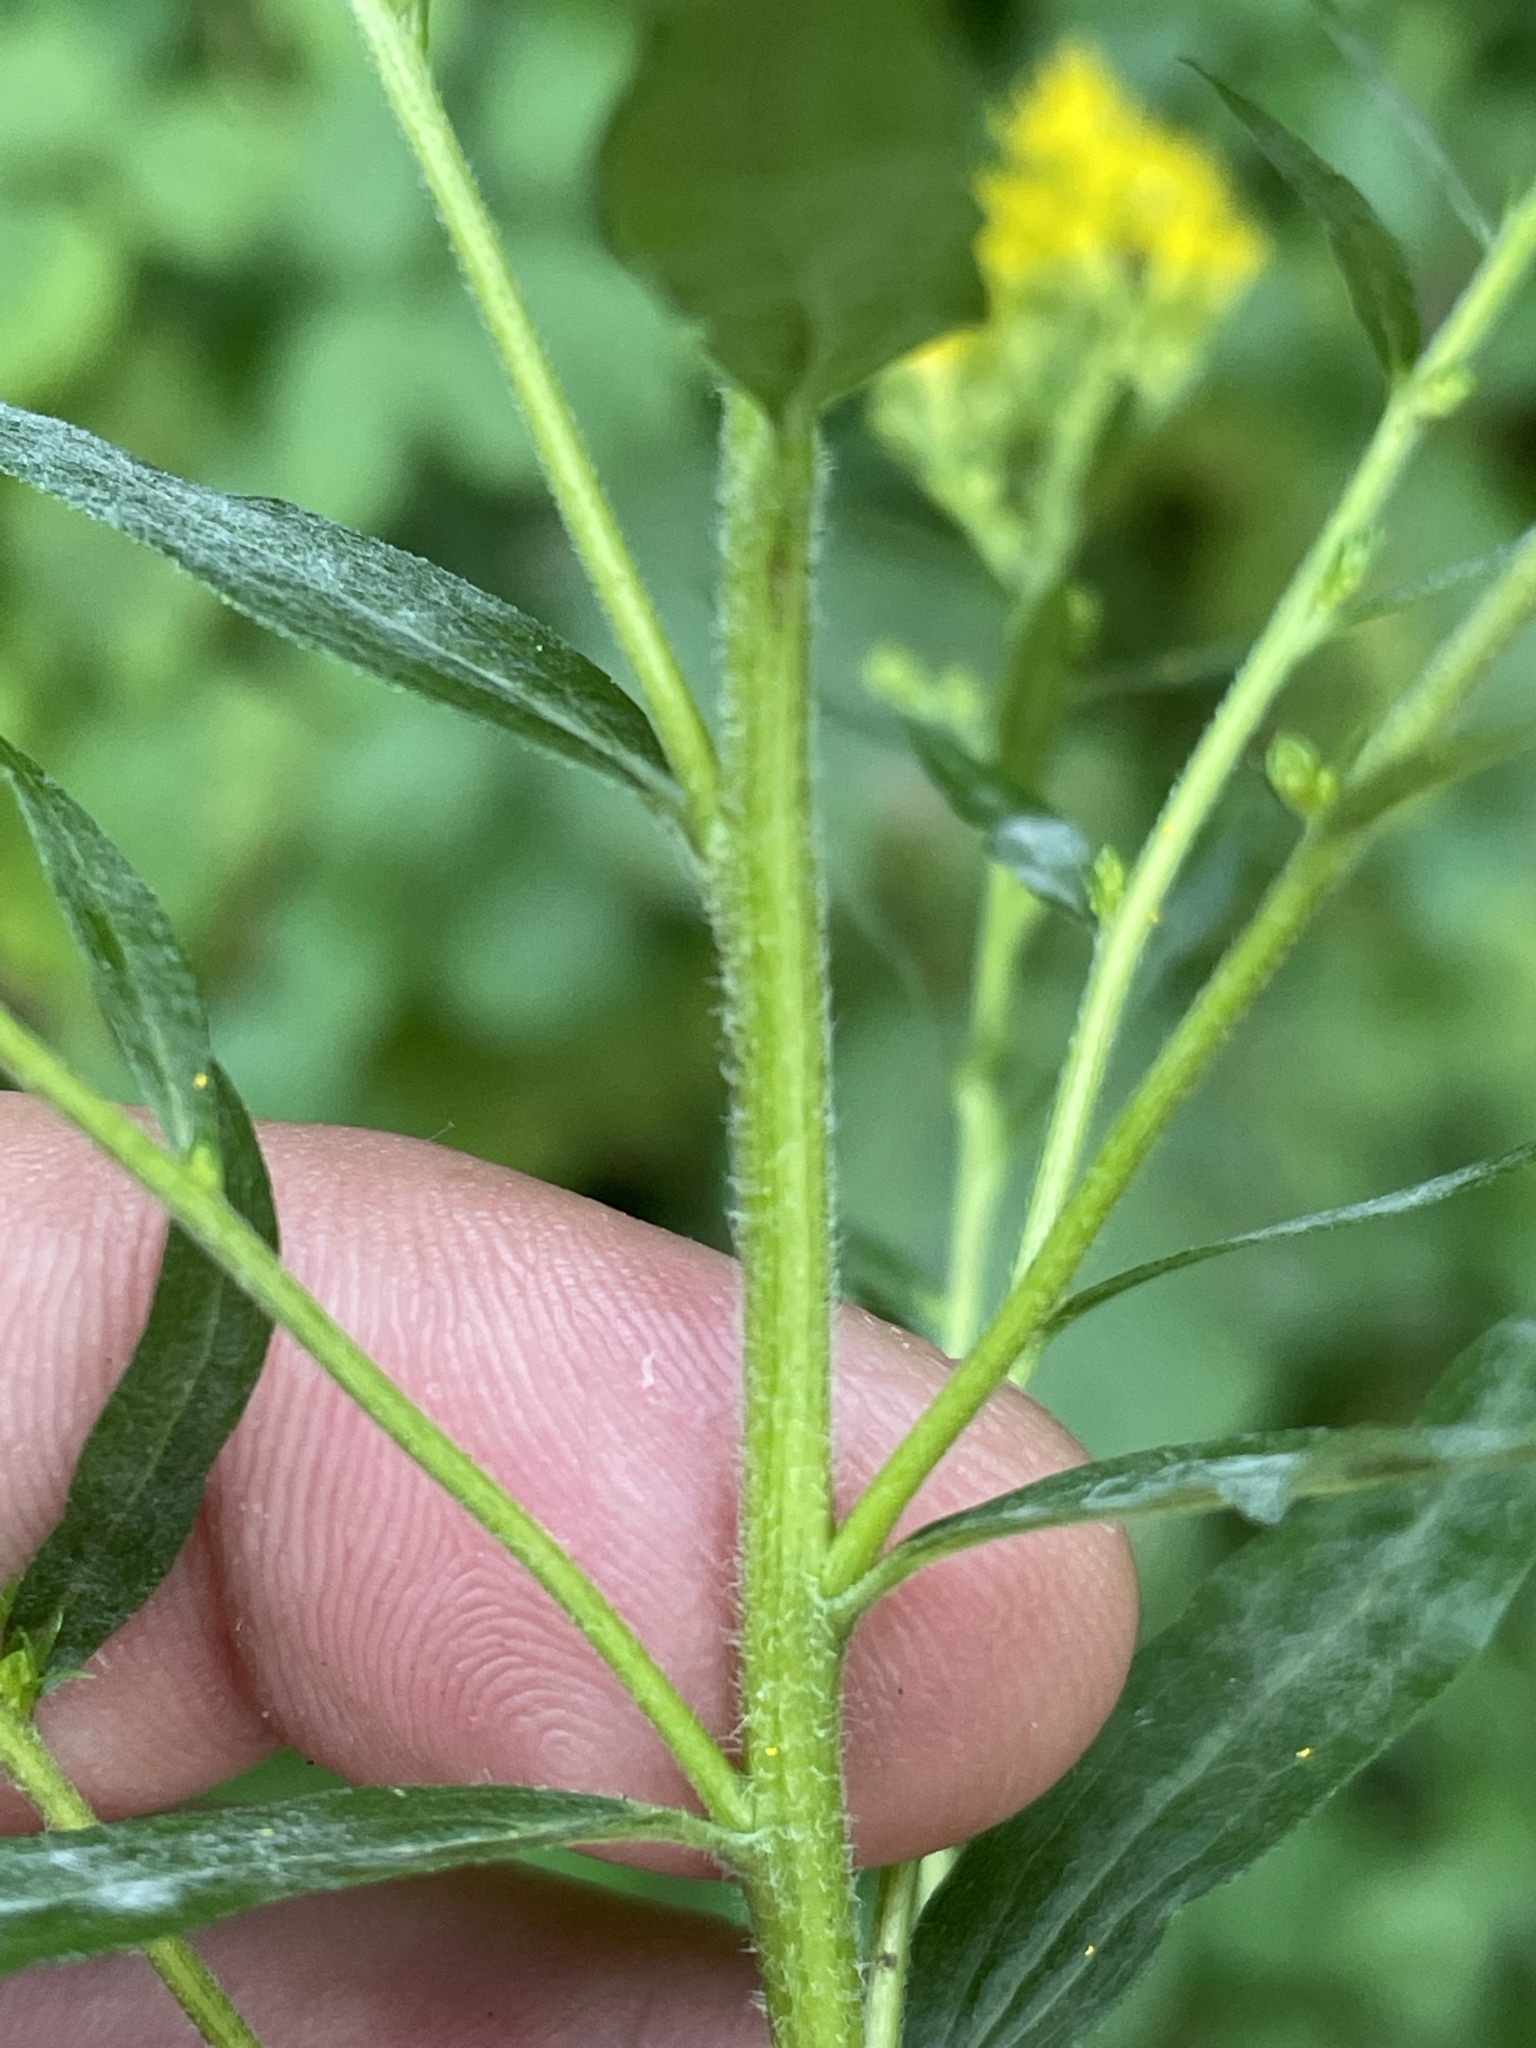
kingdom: Plantae
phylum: Tracheophyta
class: Magnoliopsida
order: Asterales
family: Asteraceae
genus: Solidago
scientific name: Solidago canadensis
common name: Canada goldenrod
